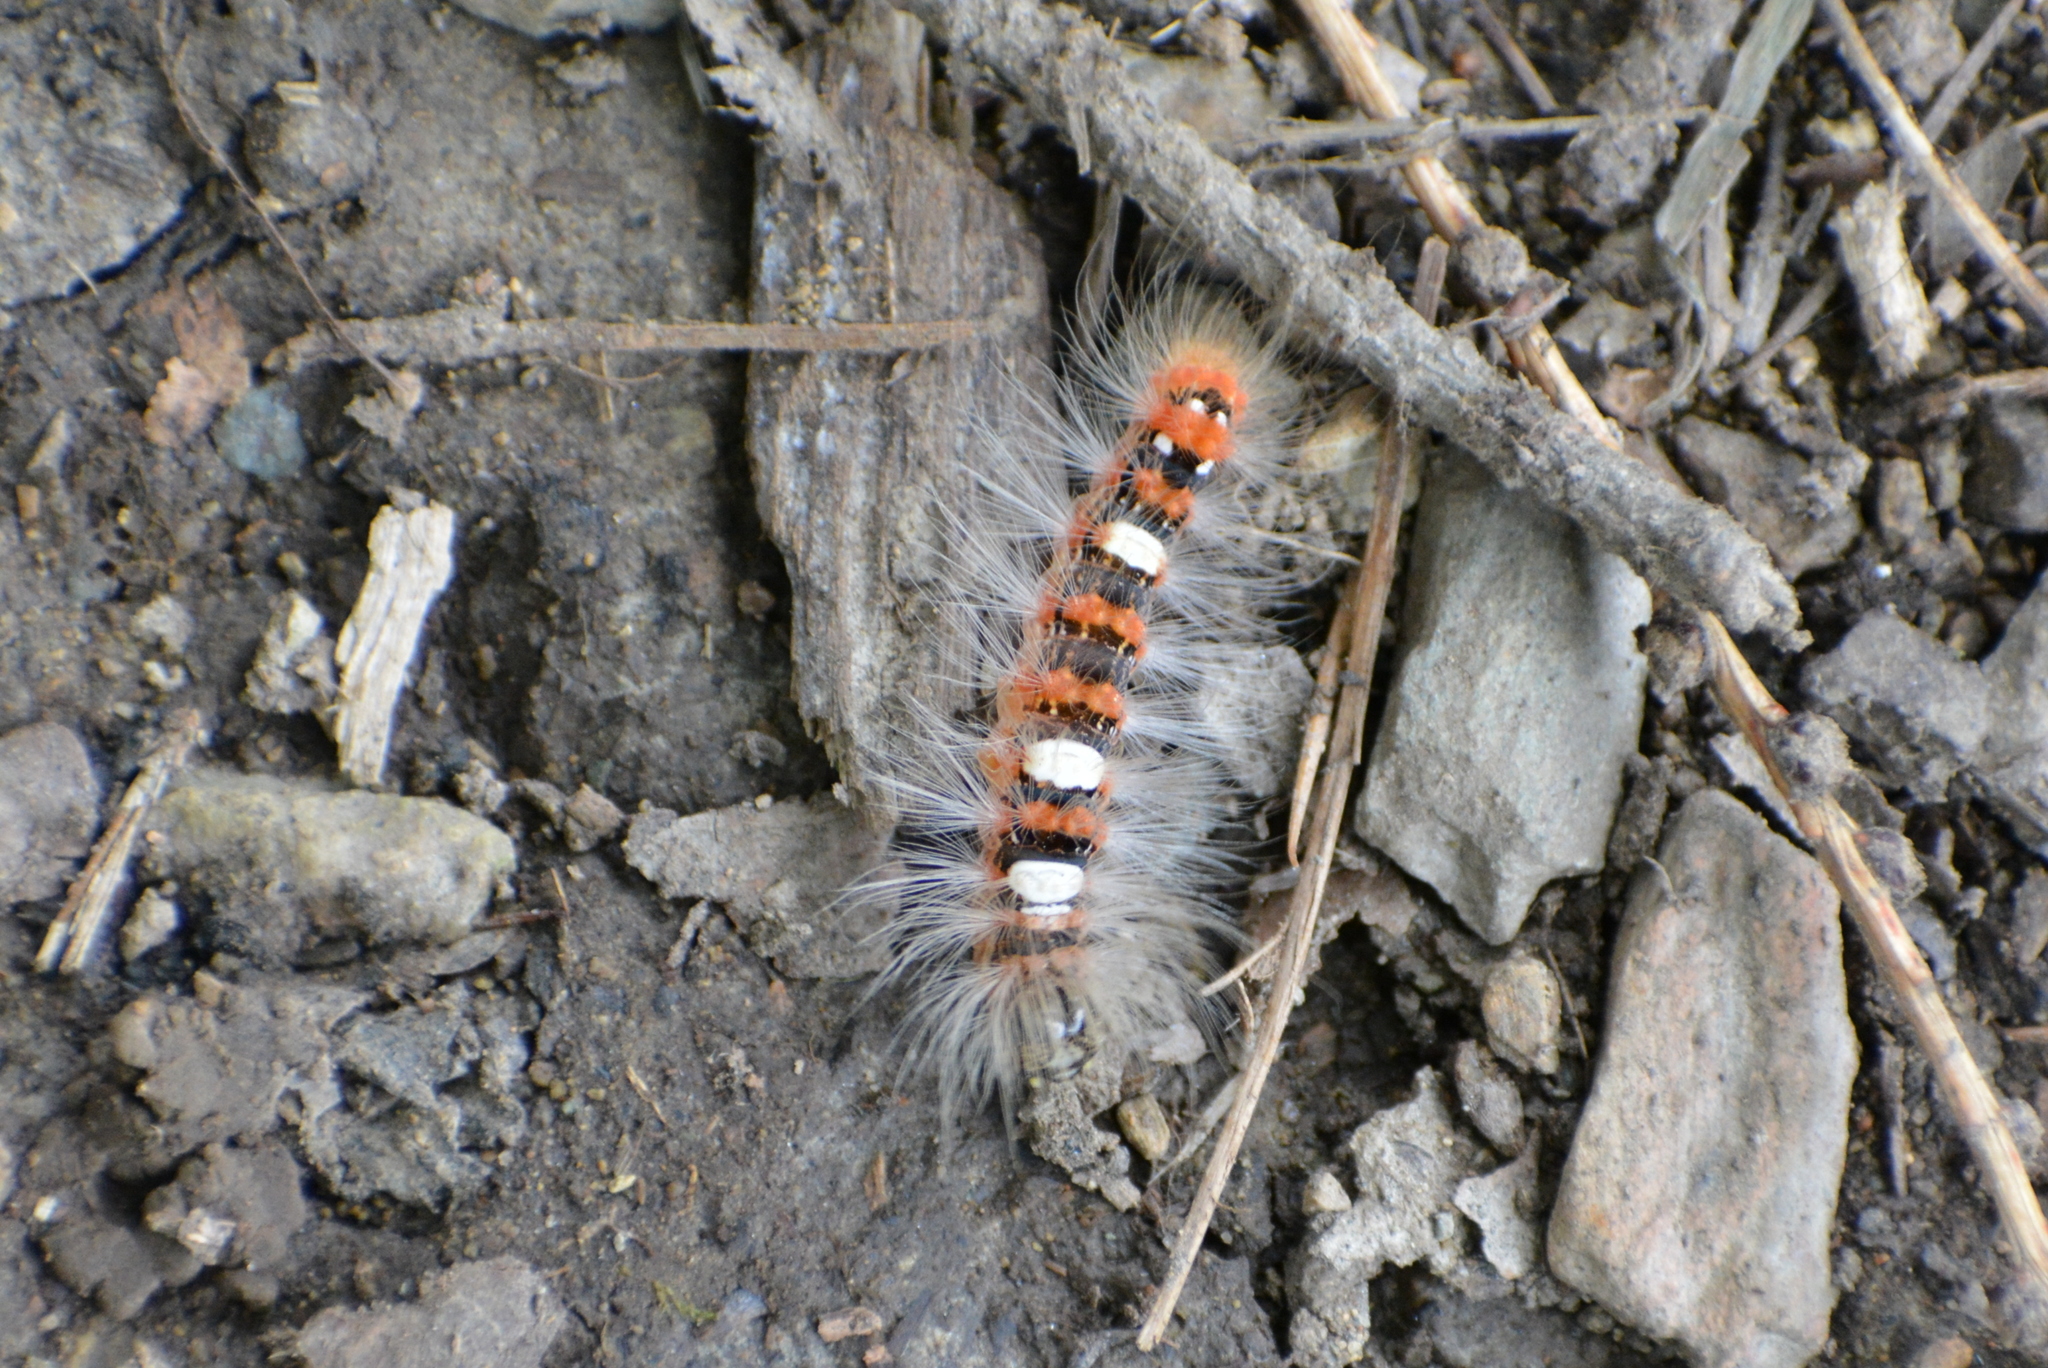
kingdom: Animalia
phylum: Arthropoda
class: Insecta
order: Lepidoptera
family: Noctuidae
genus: Moma
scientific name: Moma alpium
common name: Scarce merveille du jour
